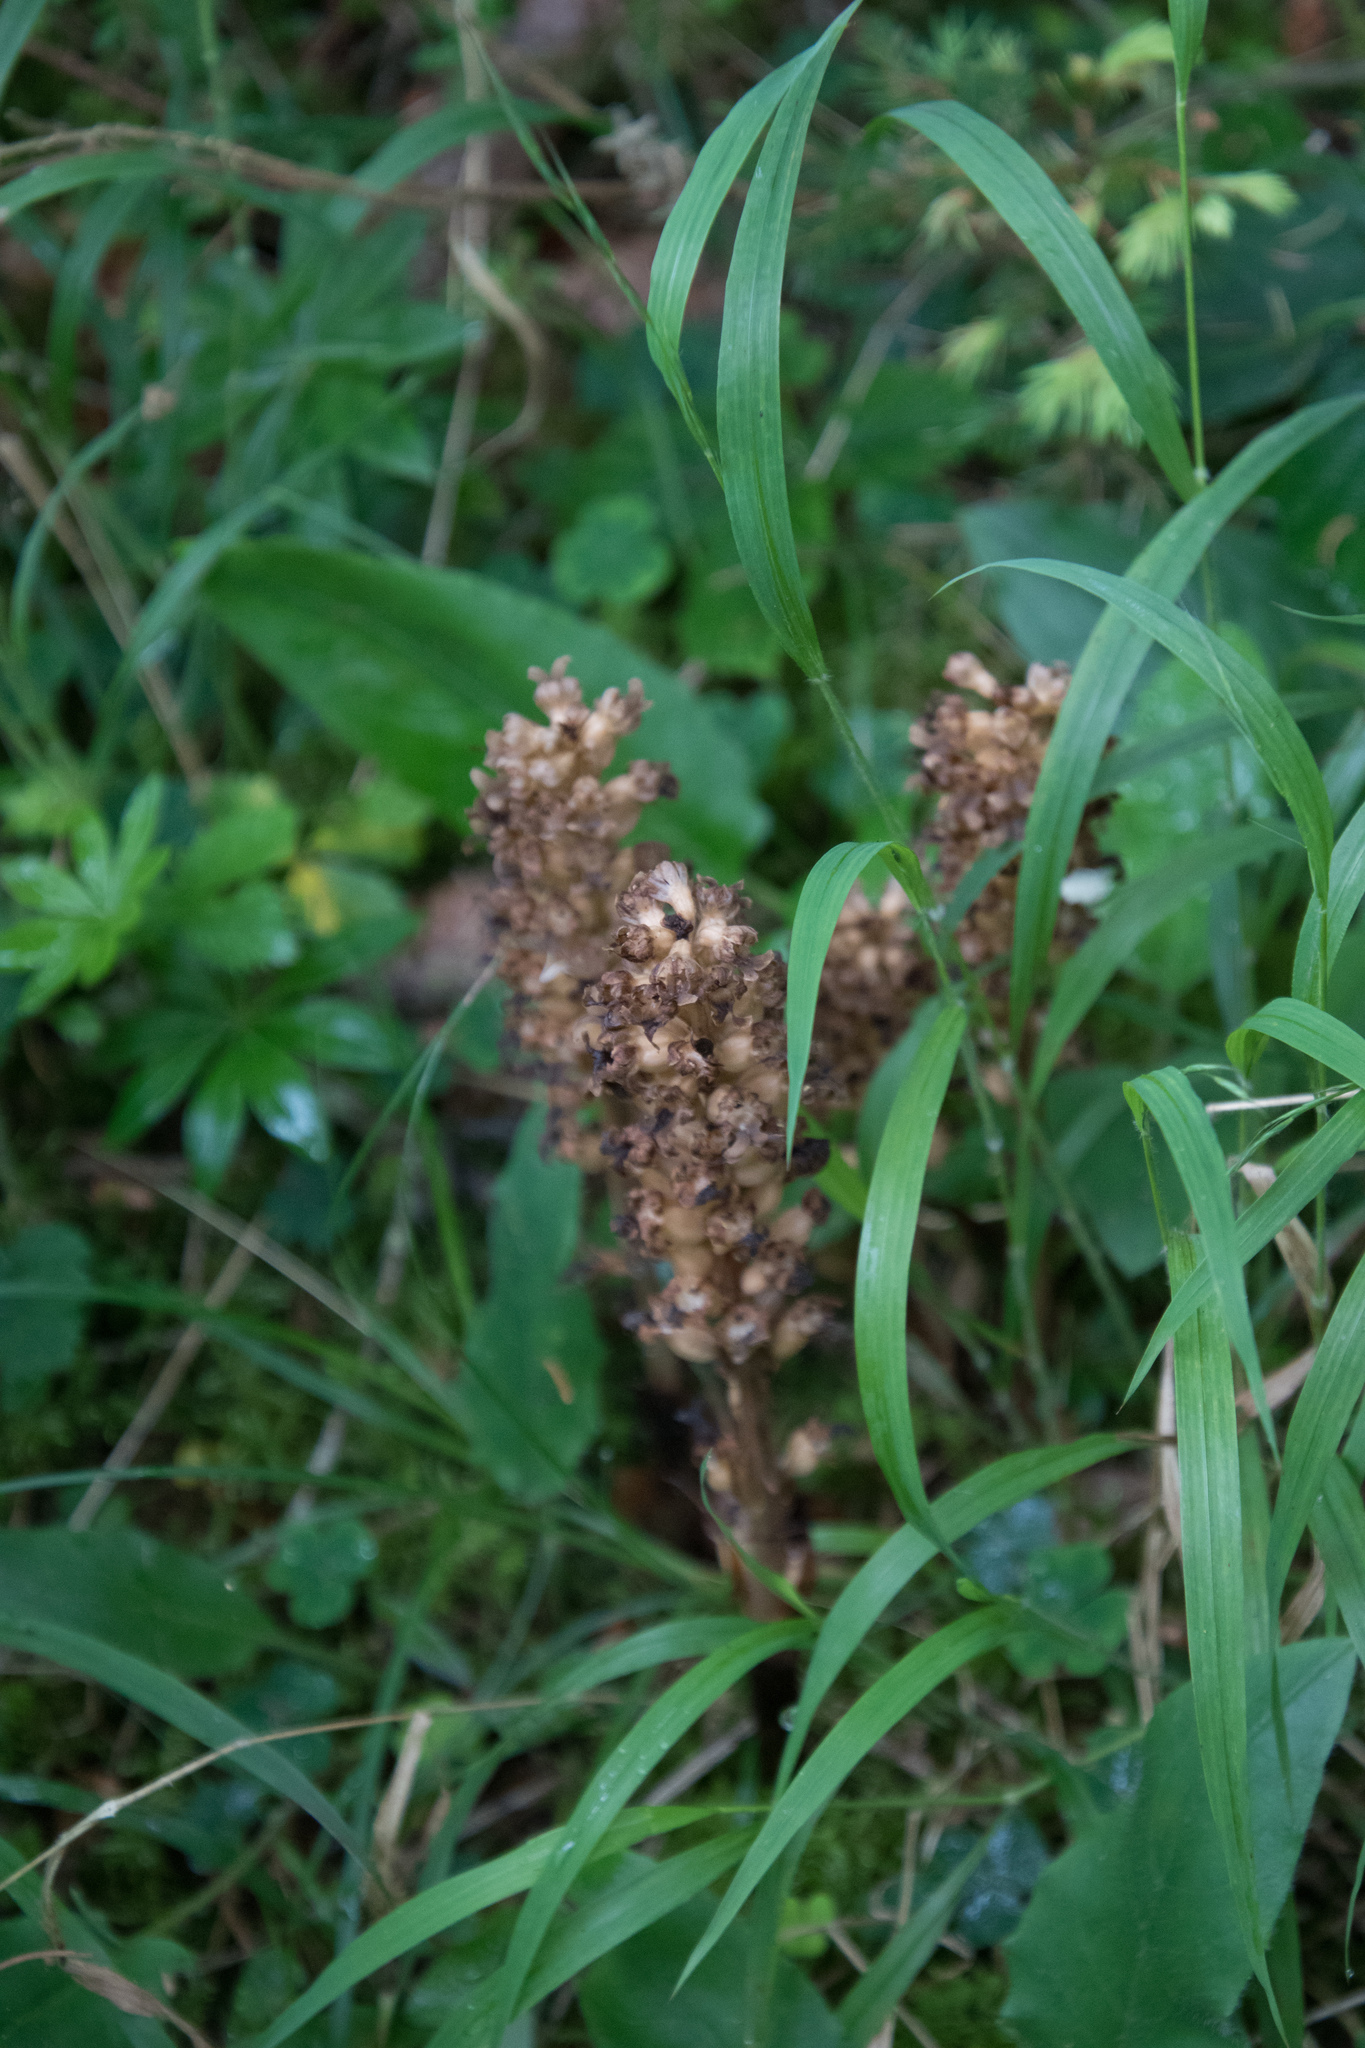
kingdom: Plantae
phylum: Tracheophyta
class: Liliopsida
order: Asparagales
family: Orchidaceae
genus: Neottia
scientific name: Neottia nidus-avis
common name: Bird's-nest orchid
